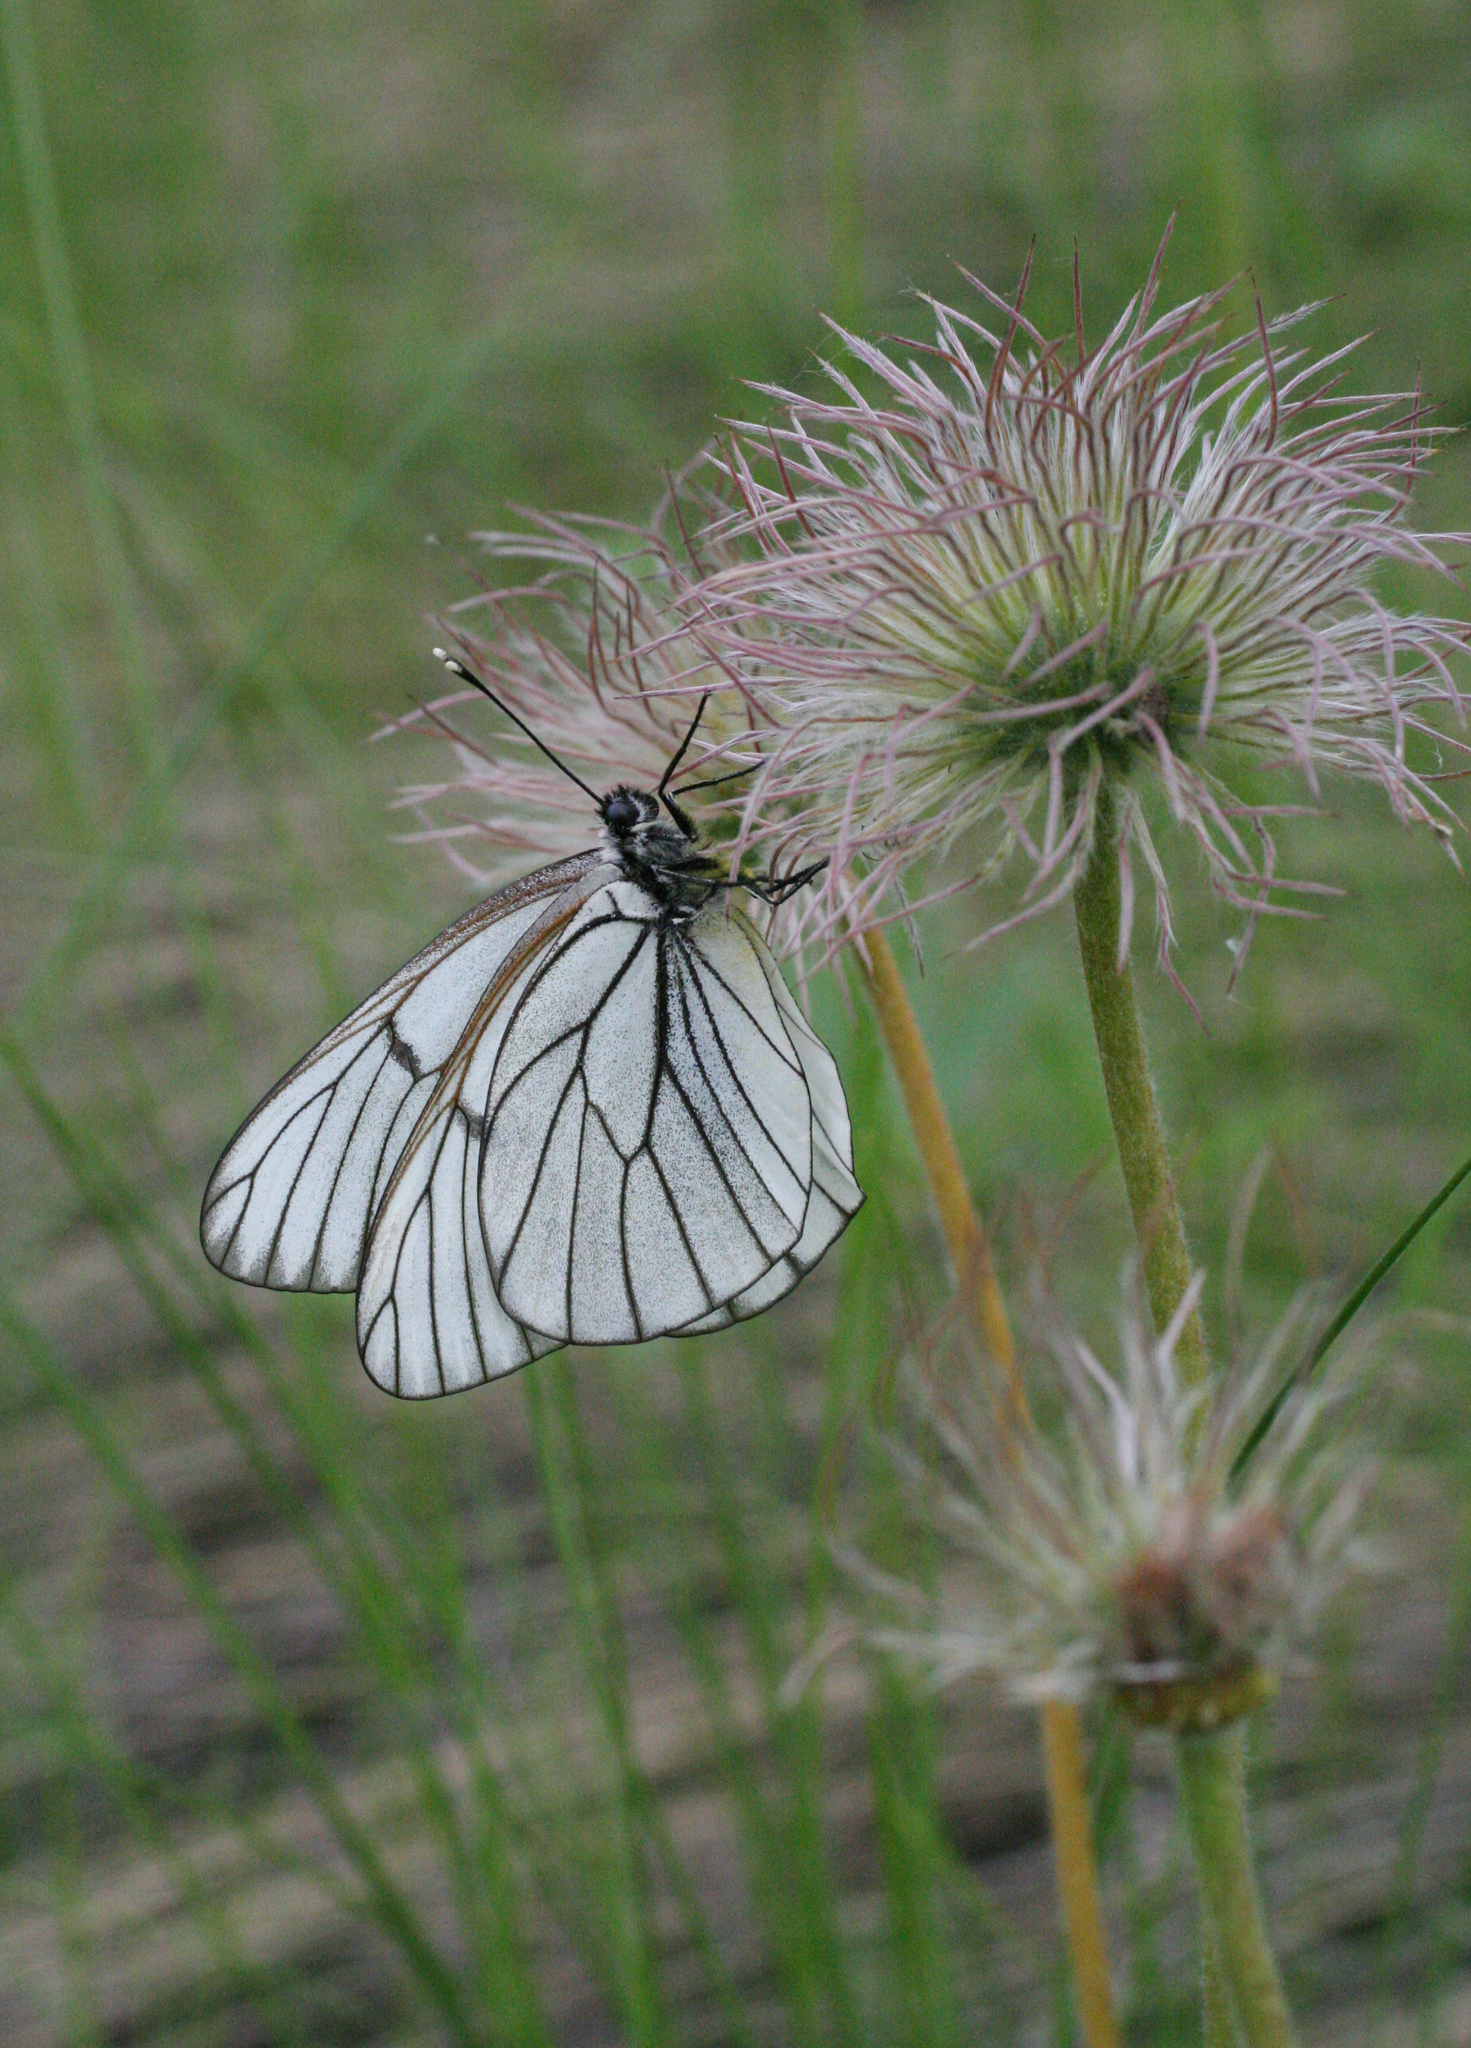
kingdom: Animalia
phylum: Arthropoda
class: Insecta
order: Lepidoptera
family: Pieridae
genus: Aporia
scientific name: Aporia crataegi
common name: Black-veined white
